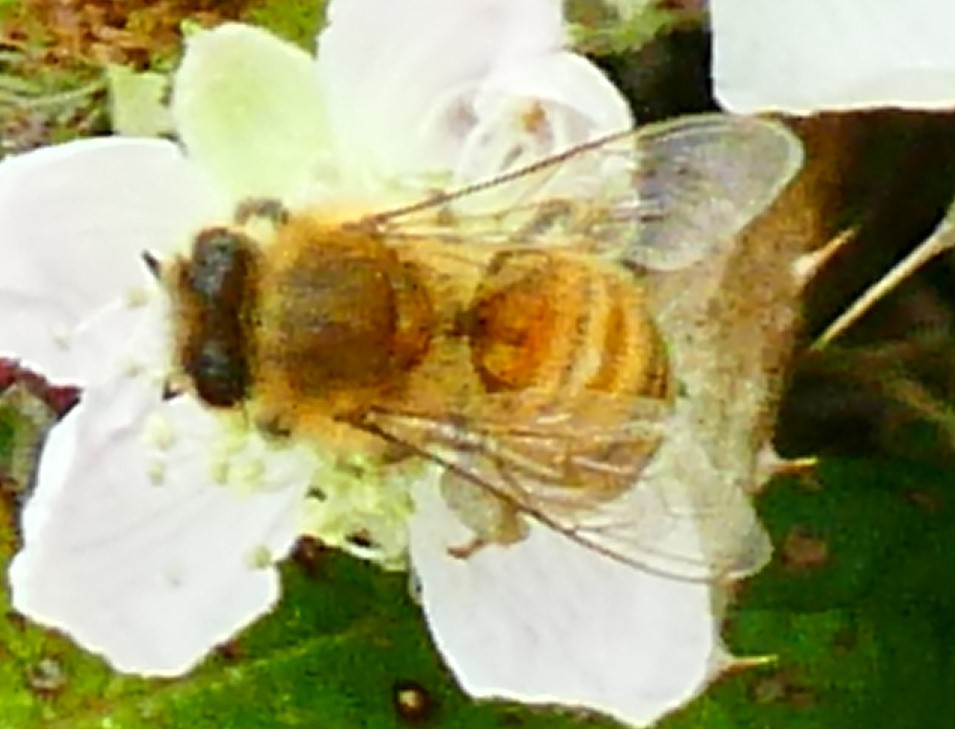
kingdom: Animalia
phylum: Arthropoda
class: Insecta
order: Hymenoptera
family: Apidae
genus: Apis
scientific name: Apis mellifera
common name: Honey bee
